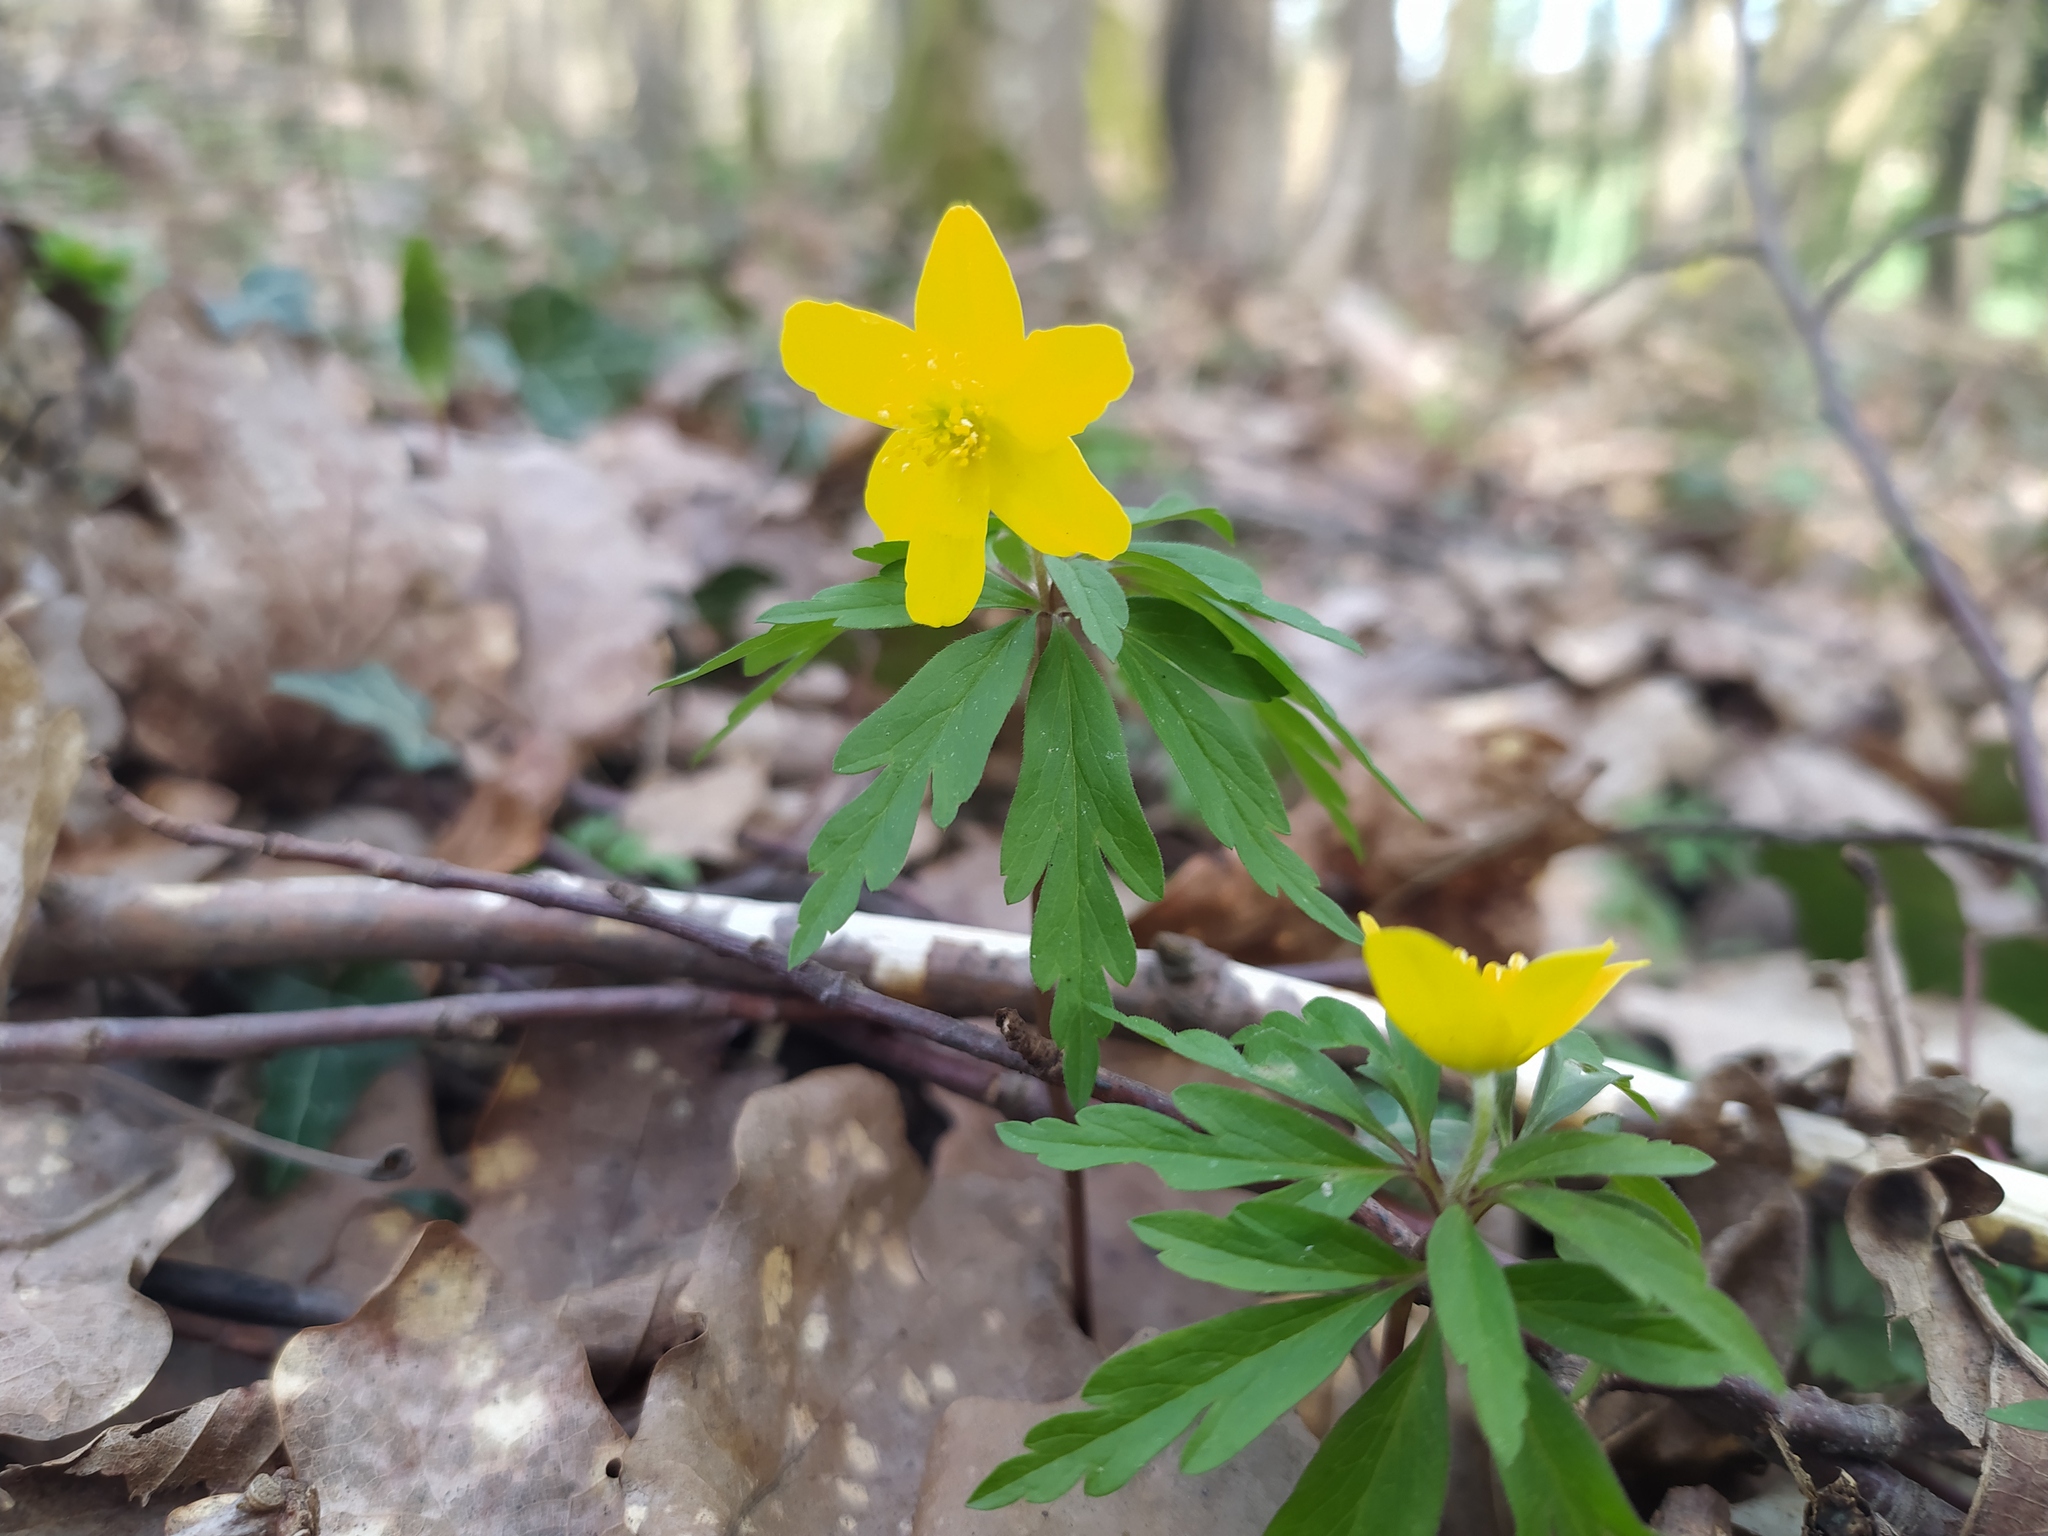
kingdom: Plantae
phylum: Tracheophyta
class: Magnoliopsida
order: Ranunculales
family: Ranunculaceae
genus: Anemone
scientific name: Anemone ranunculoides
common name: Yellow anemone
